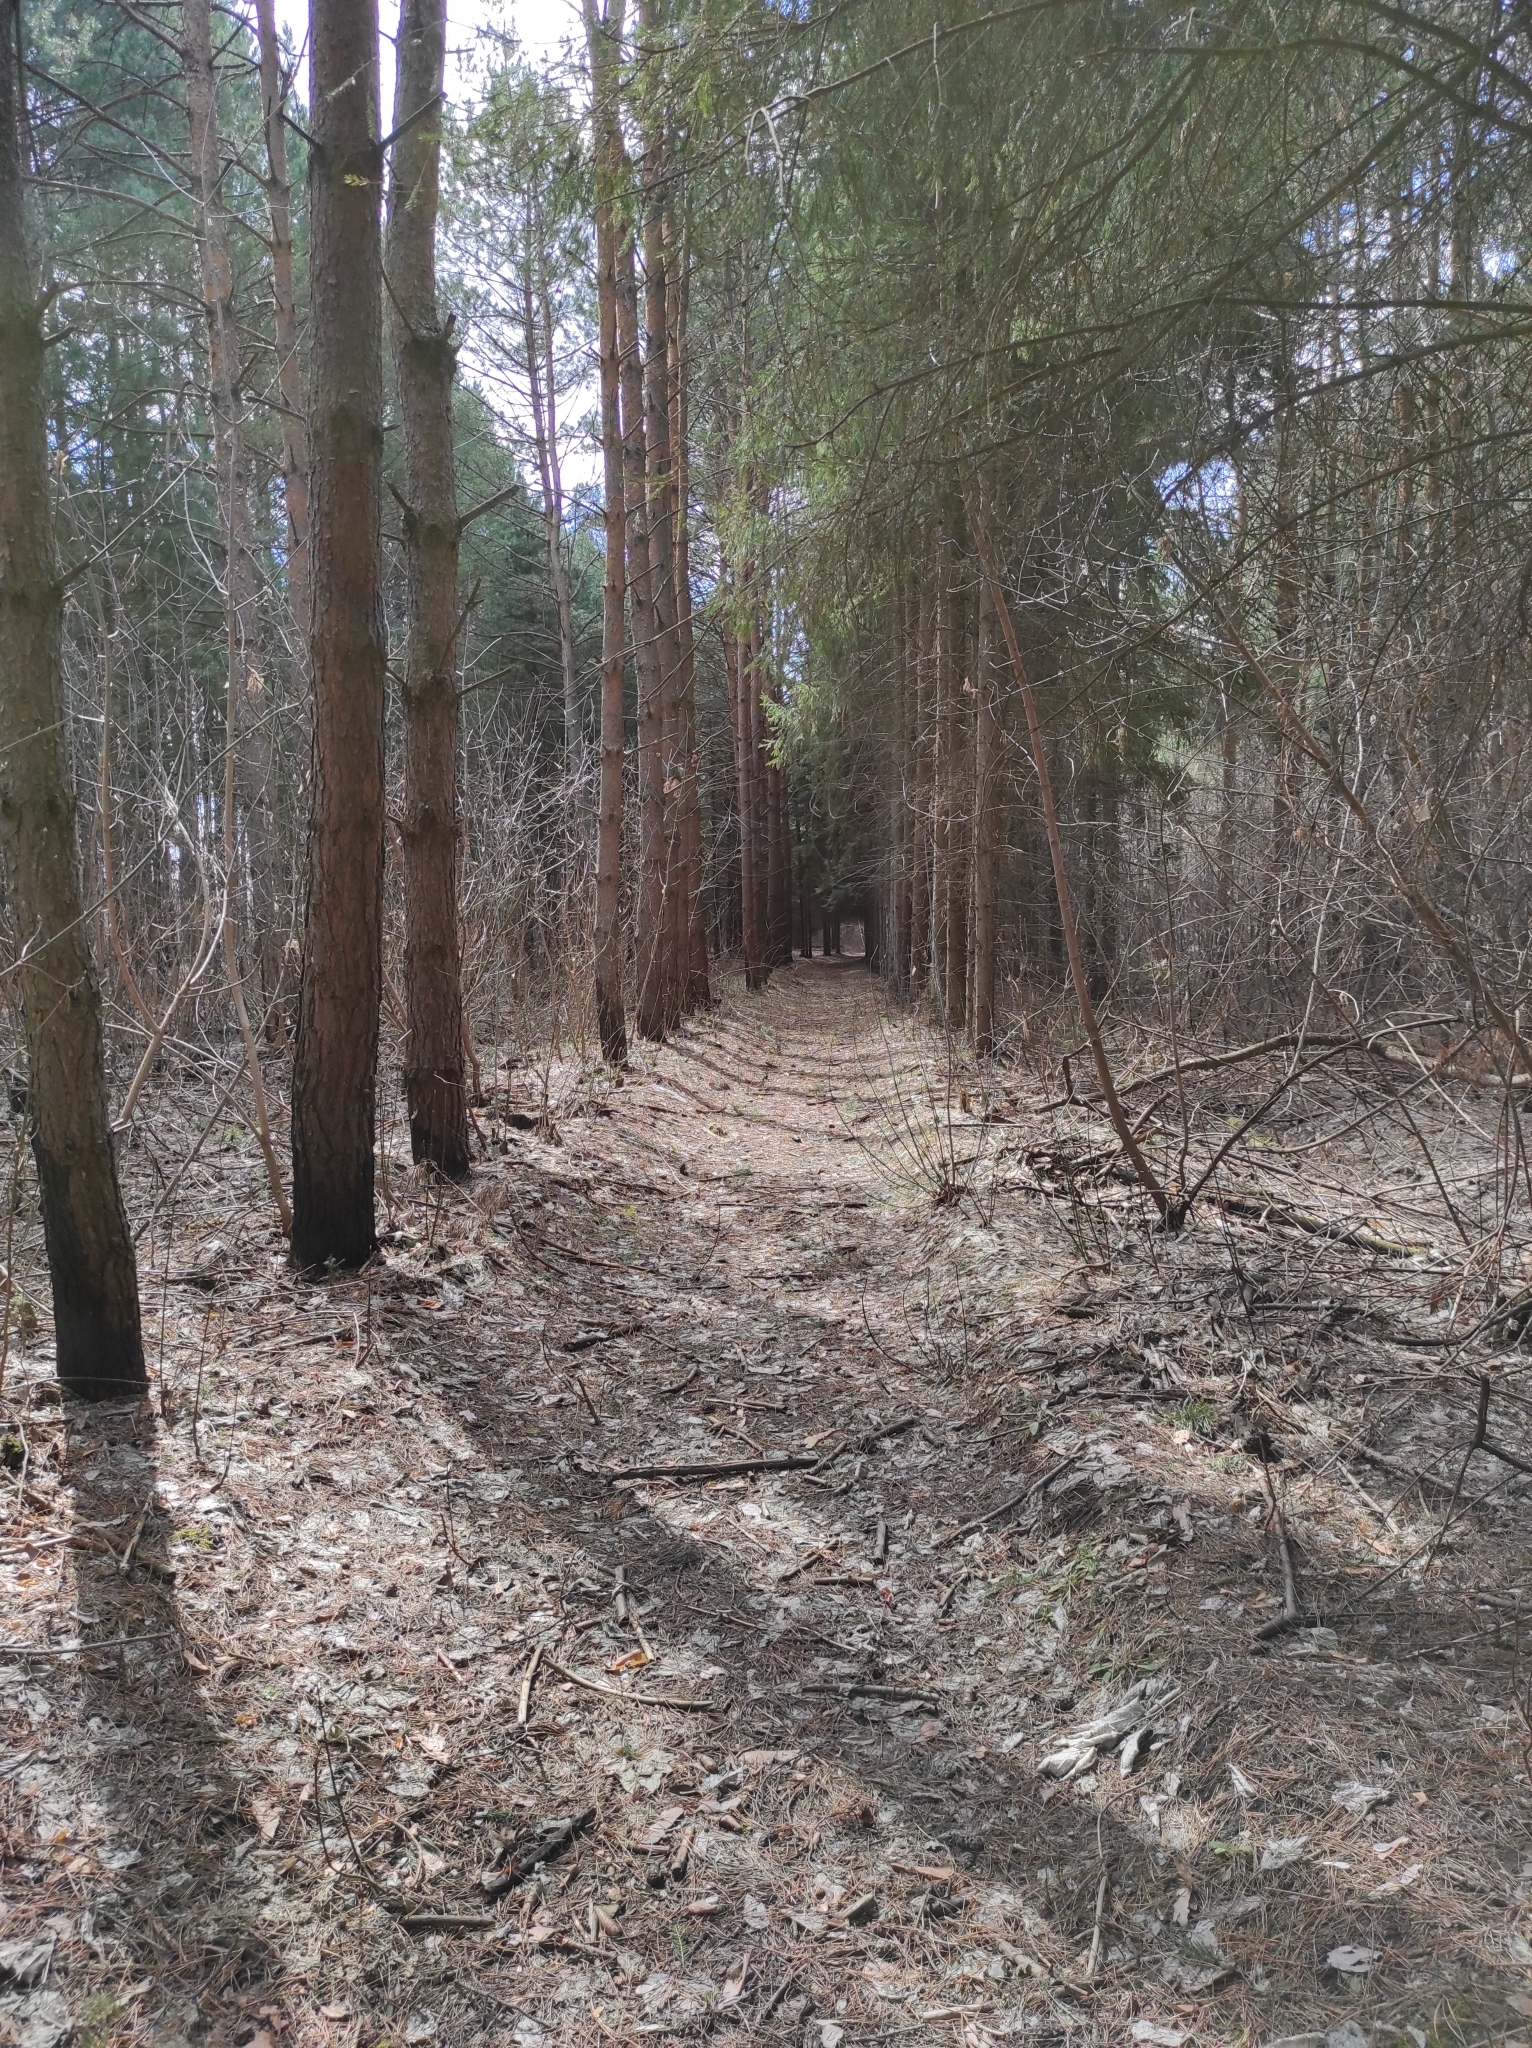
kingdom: Plantae
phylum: Tracheophyta
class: Pinopsida
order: Pinales
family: Pinaceae
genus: Pinus
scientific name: Pinus sylvestris
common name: Scots pine
